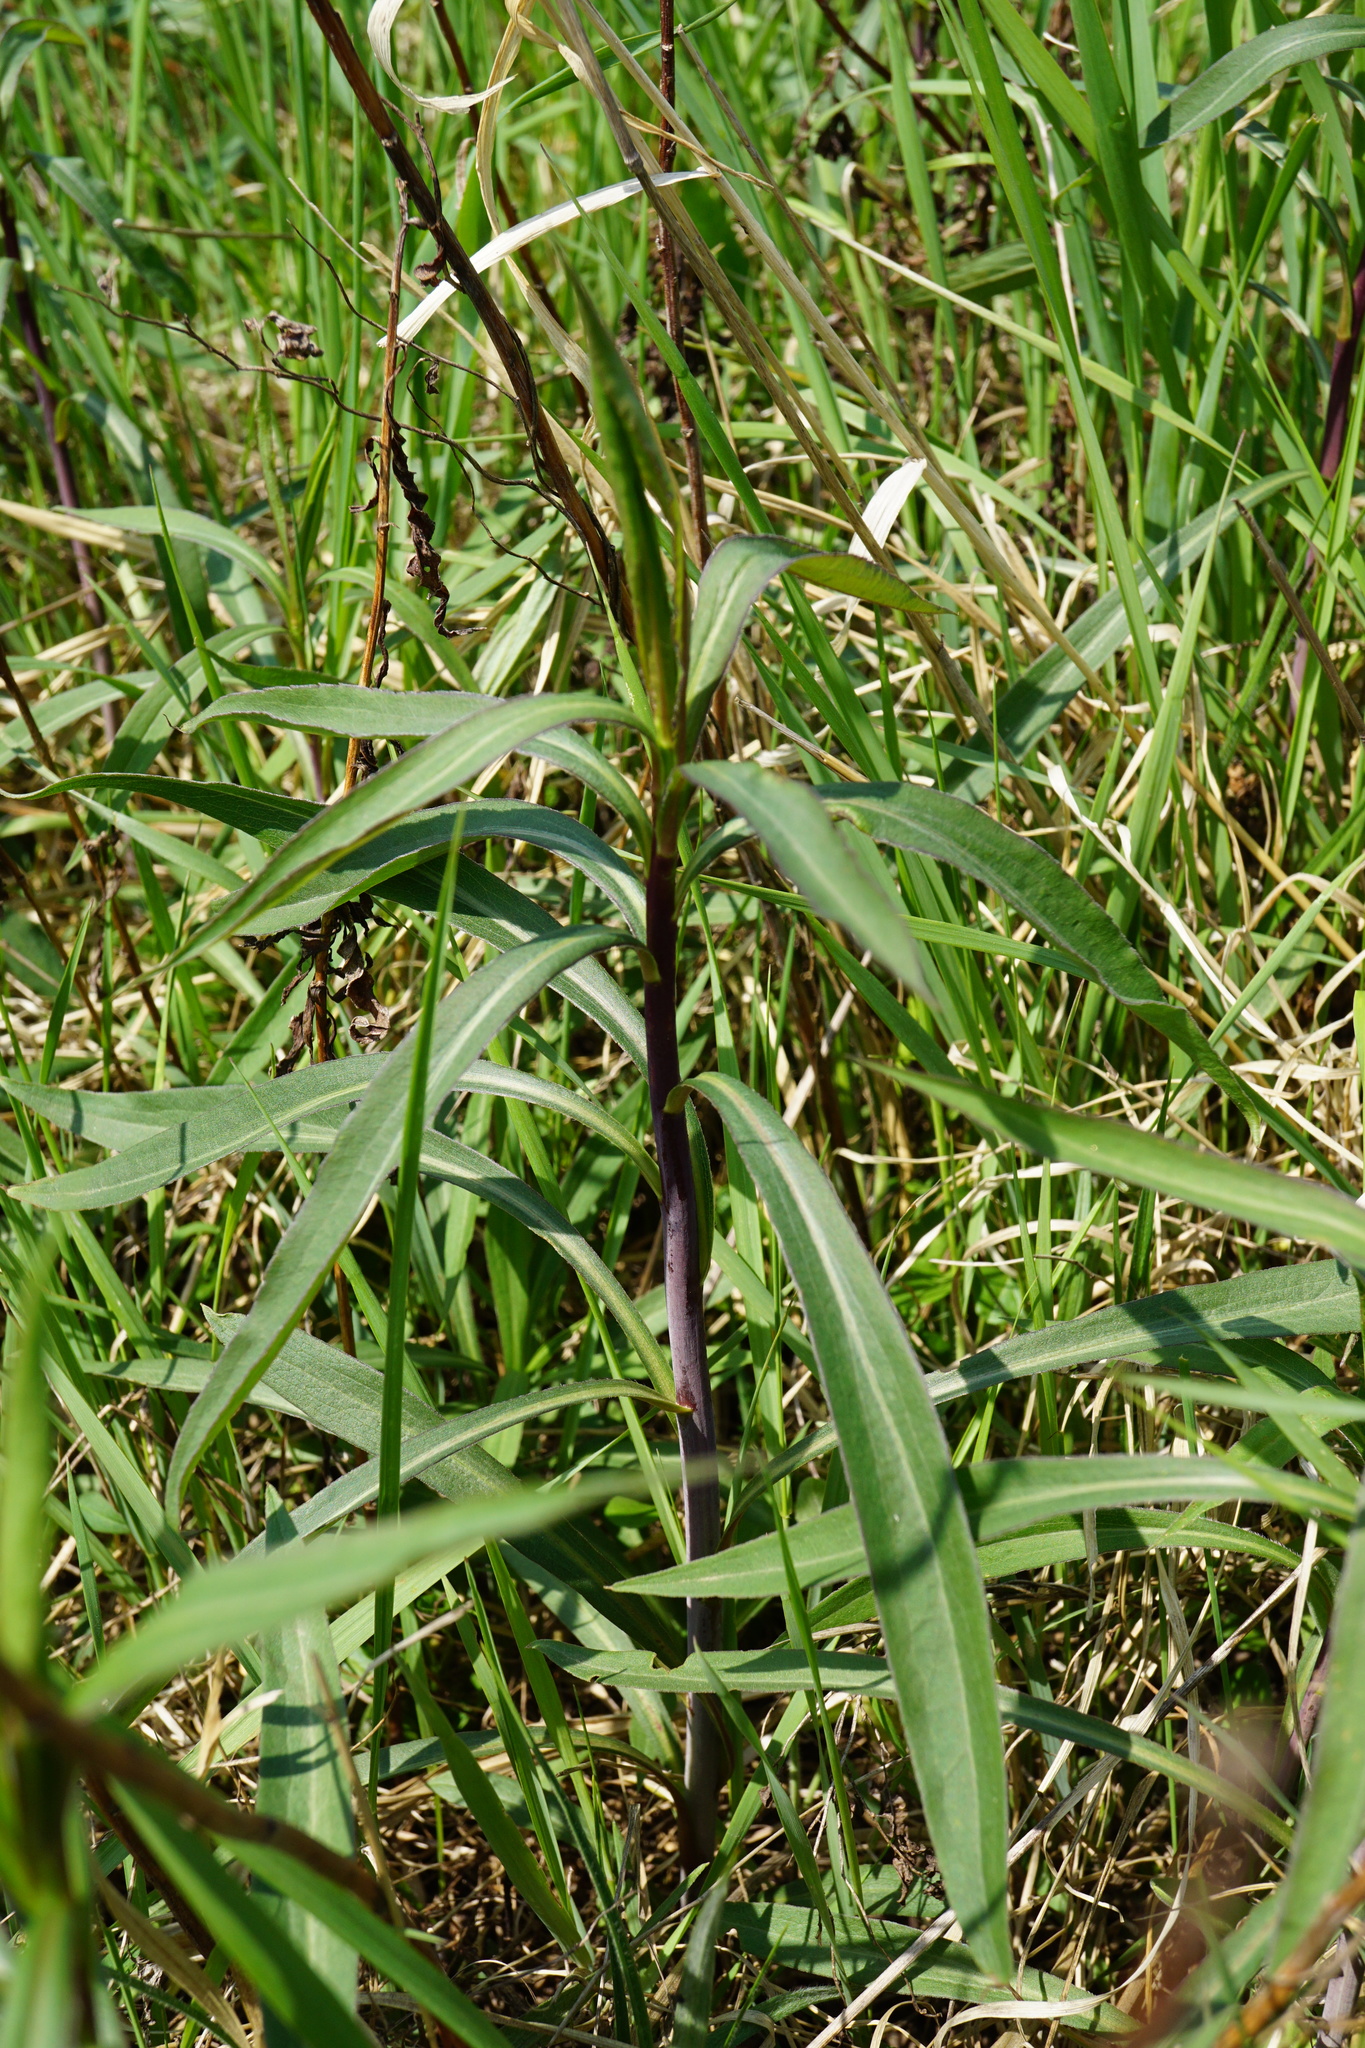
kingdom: Plantae
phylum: Tracheophyta
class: Magnoliopsida
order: Asterales
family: Asteraceae
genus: Solidago
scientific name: Solidago gigantea
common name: Giant goldenrod
